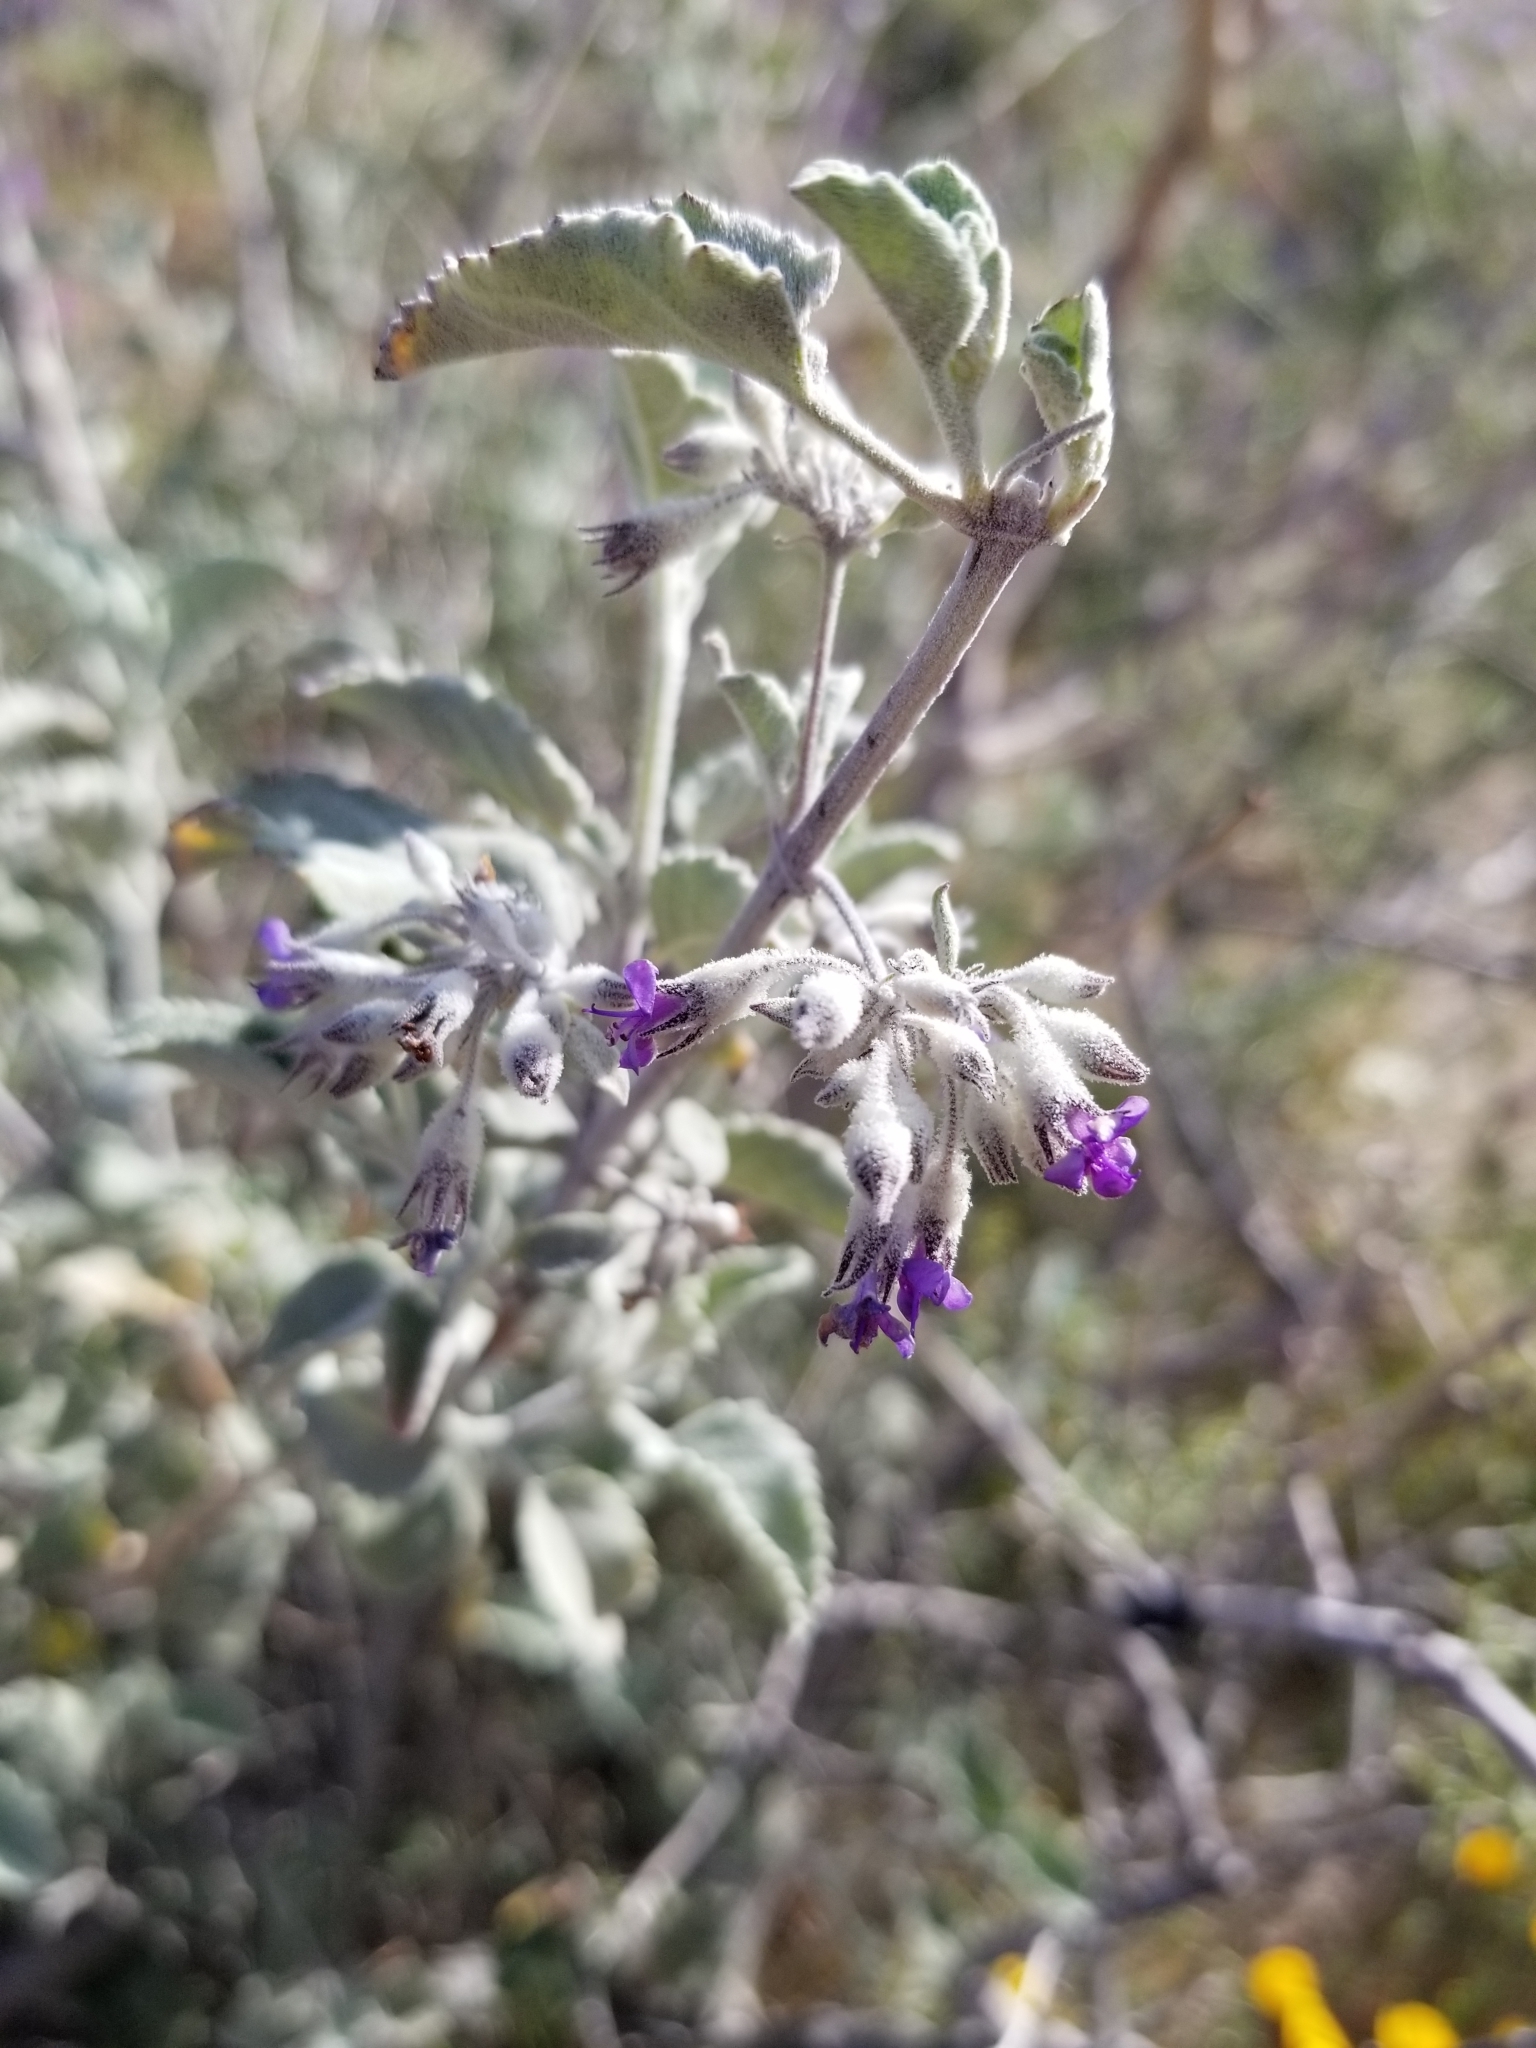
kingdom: Plantae
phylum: Tracheophyta
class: Magnoliopsida
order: Lamiales
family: Lamiaceae
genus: Condea
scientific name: Condea emoryi
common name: Chia
